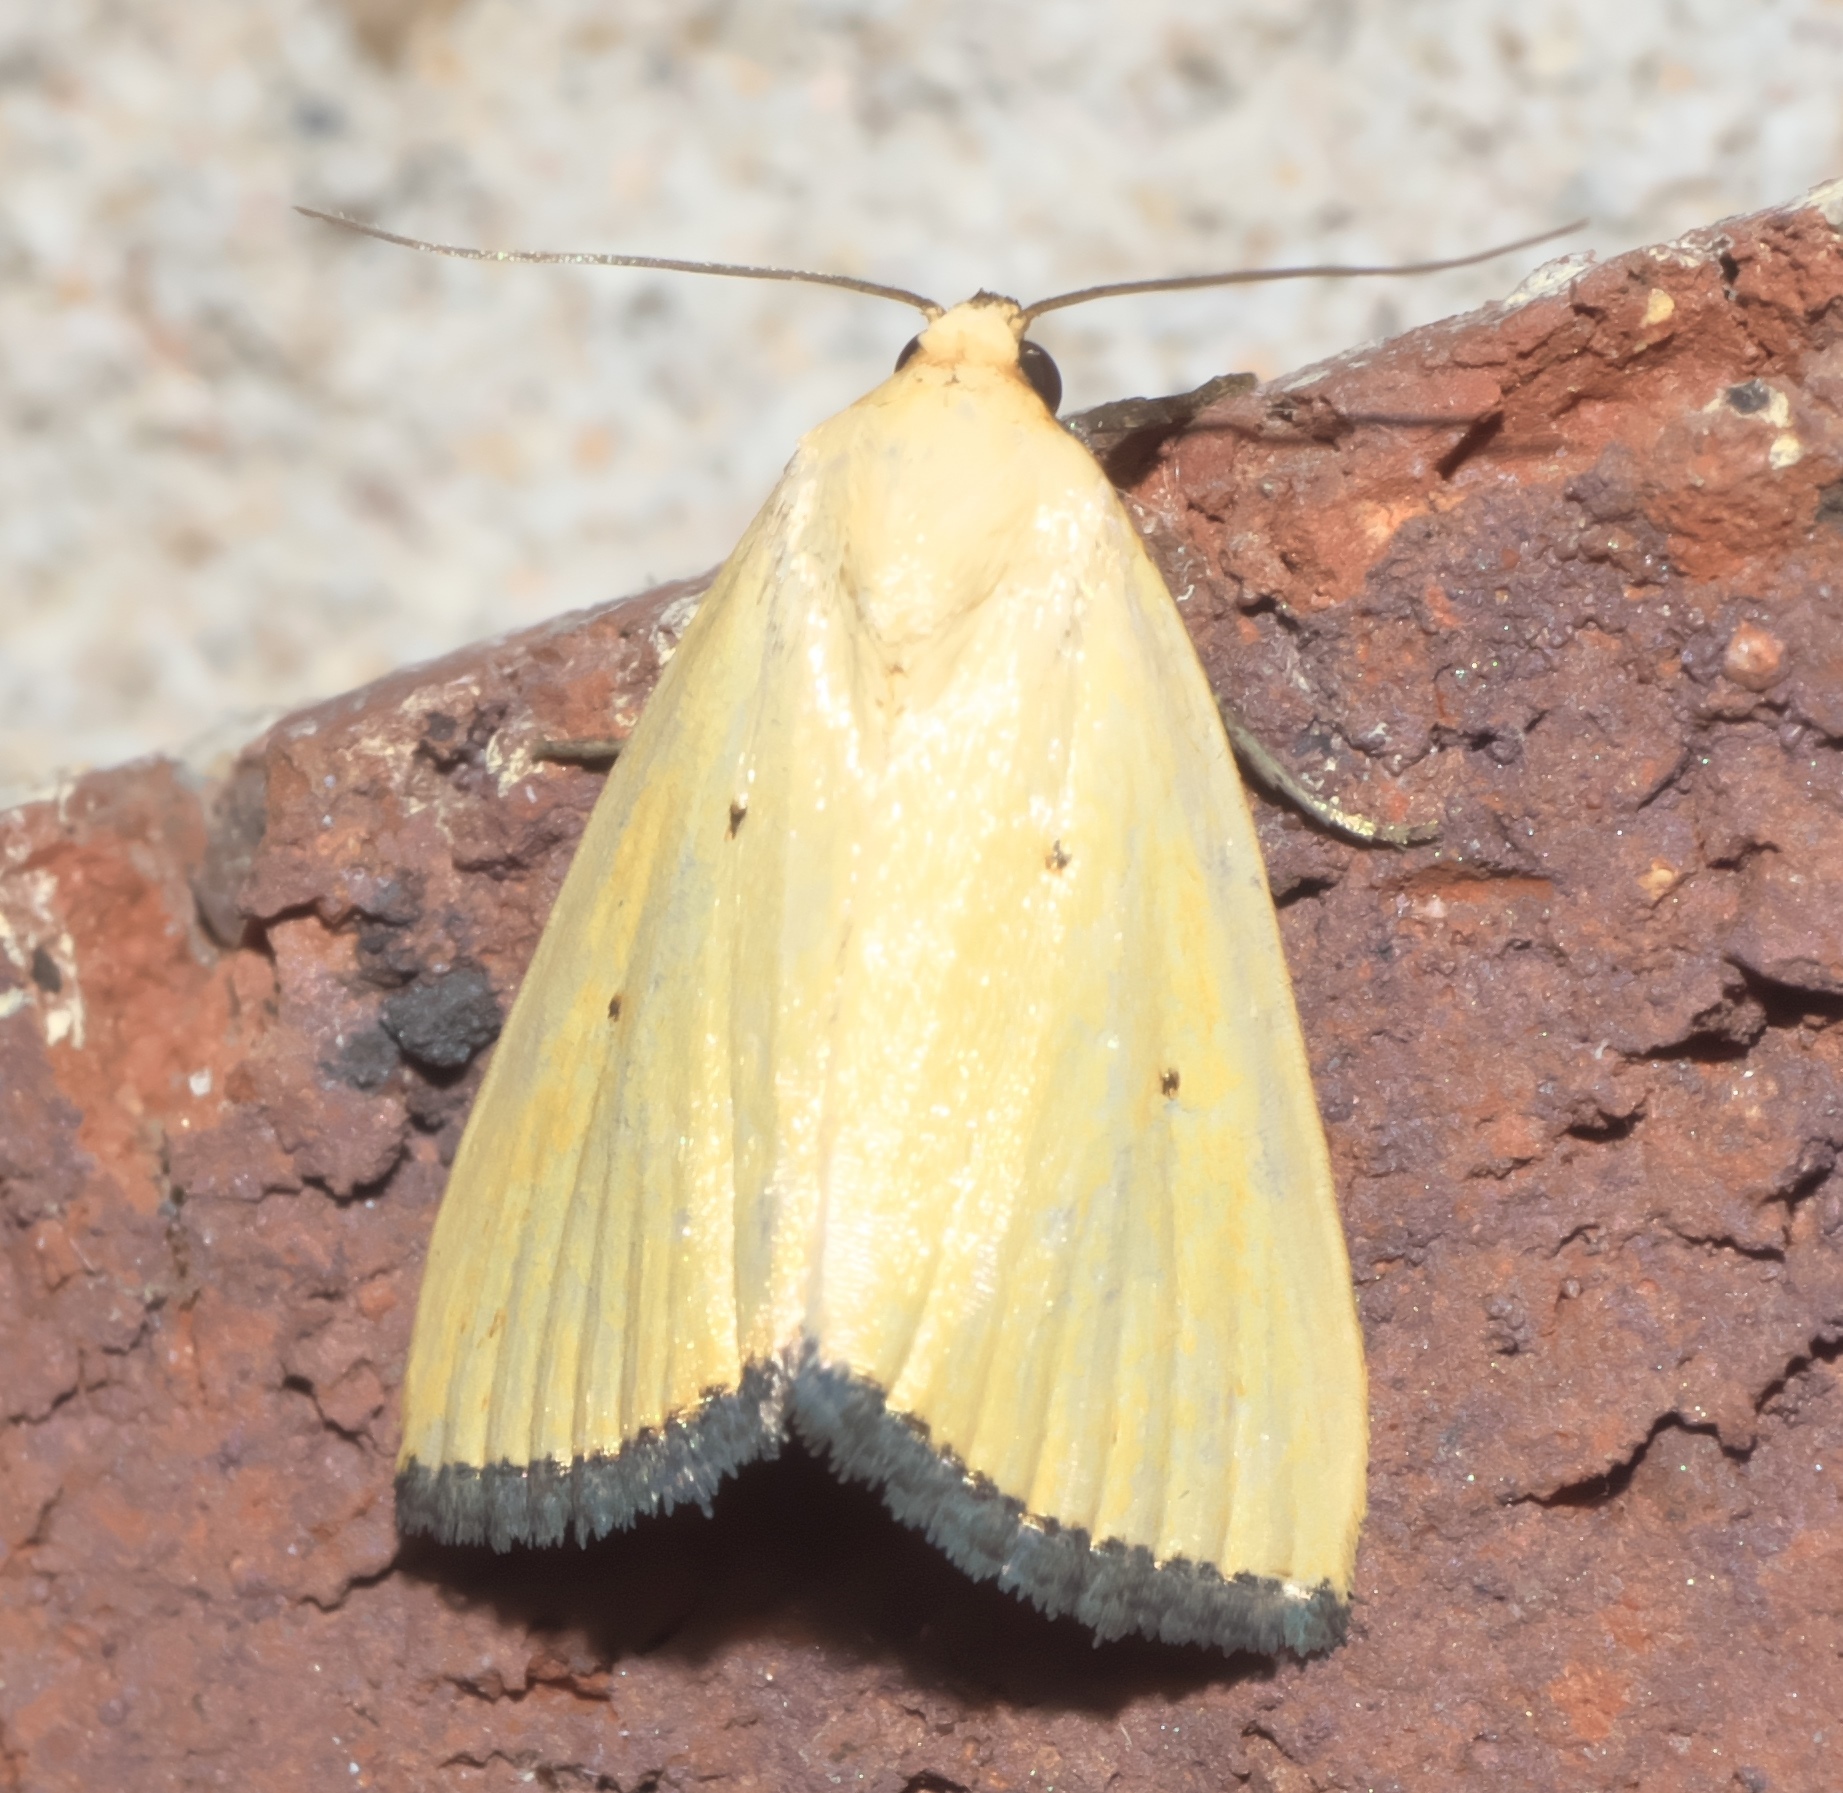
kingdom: Animalia
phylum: Arthropoda
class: Insecta
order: Lepidoptera
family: Noctuidae
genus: Marimatha
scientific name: Marimatha nigrofimbria
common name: Black-bordered lemon moth
